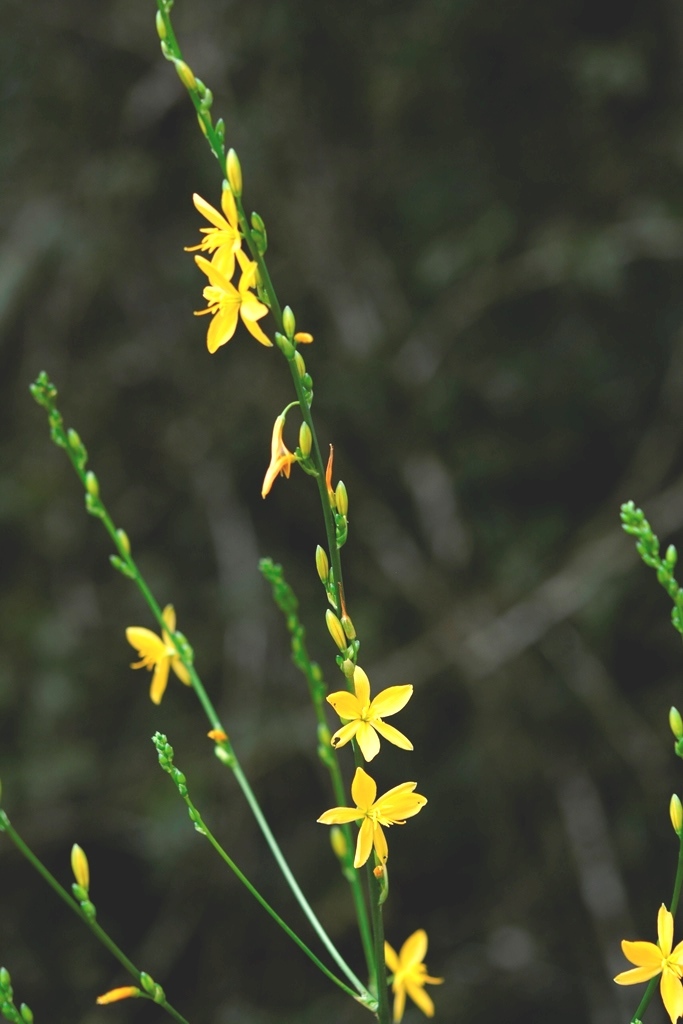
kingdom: Plantae
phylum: Tracheophyta
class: Liliopsida
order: Asparagales
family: Asparagaceae
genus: Echeandia
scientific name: Echeandia breedlovei
